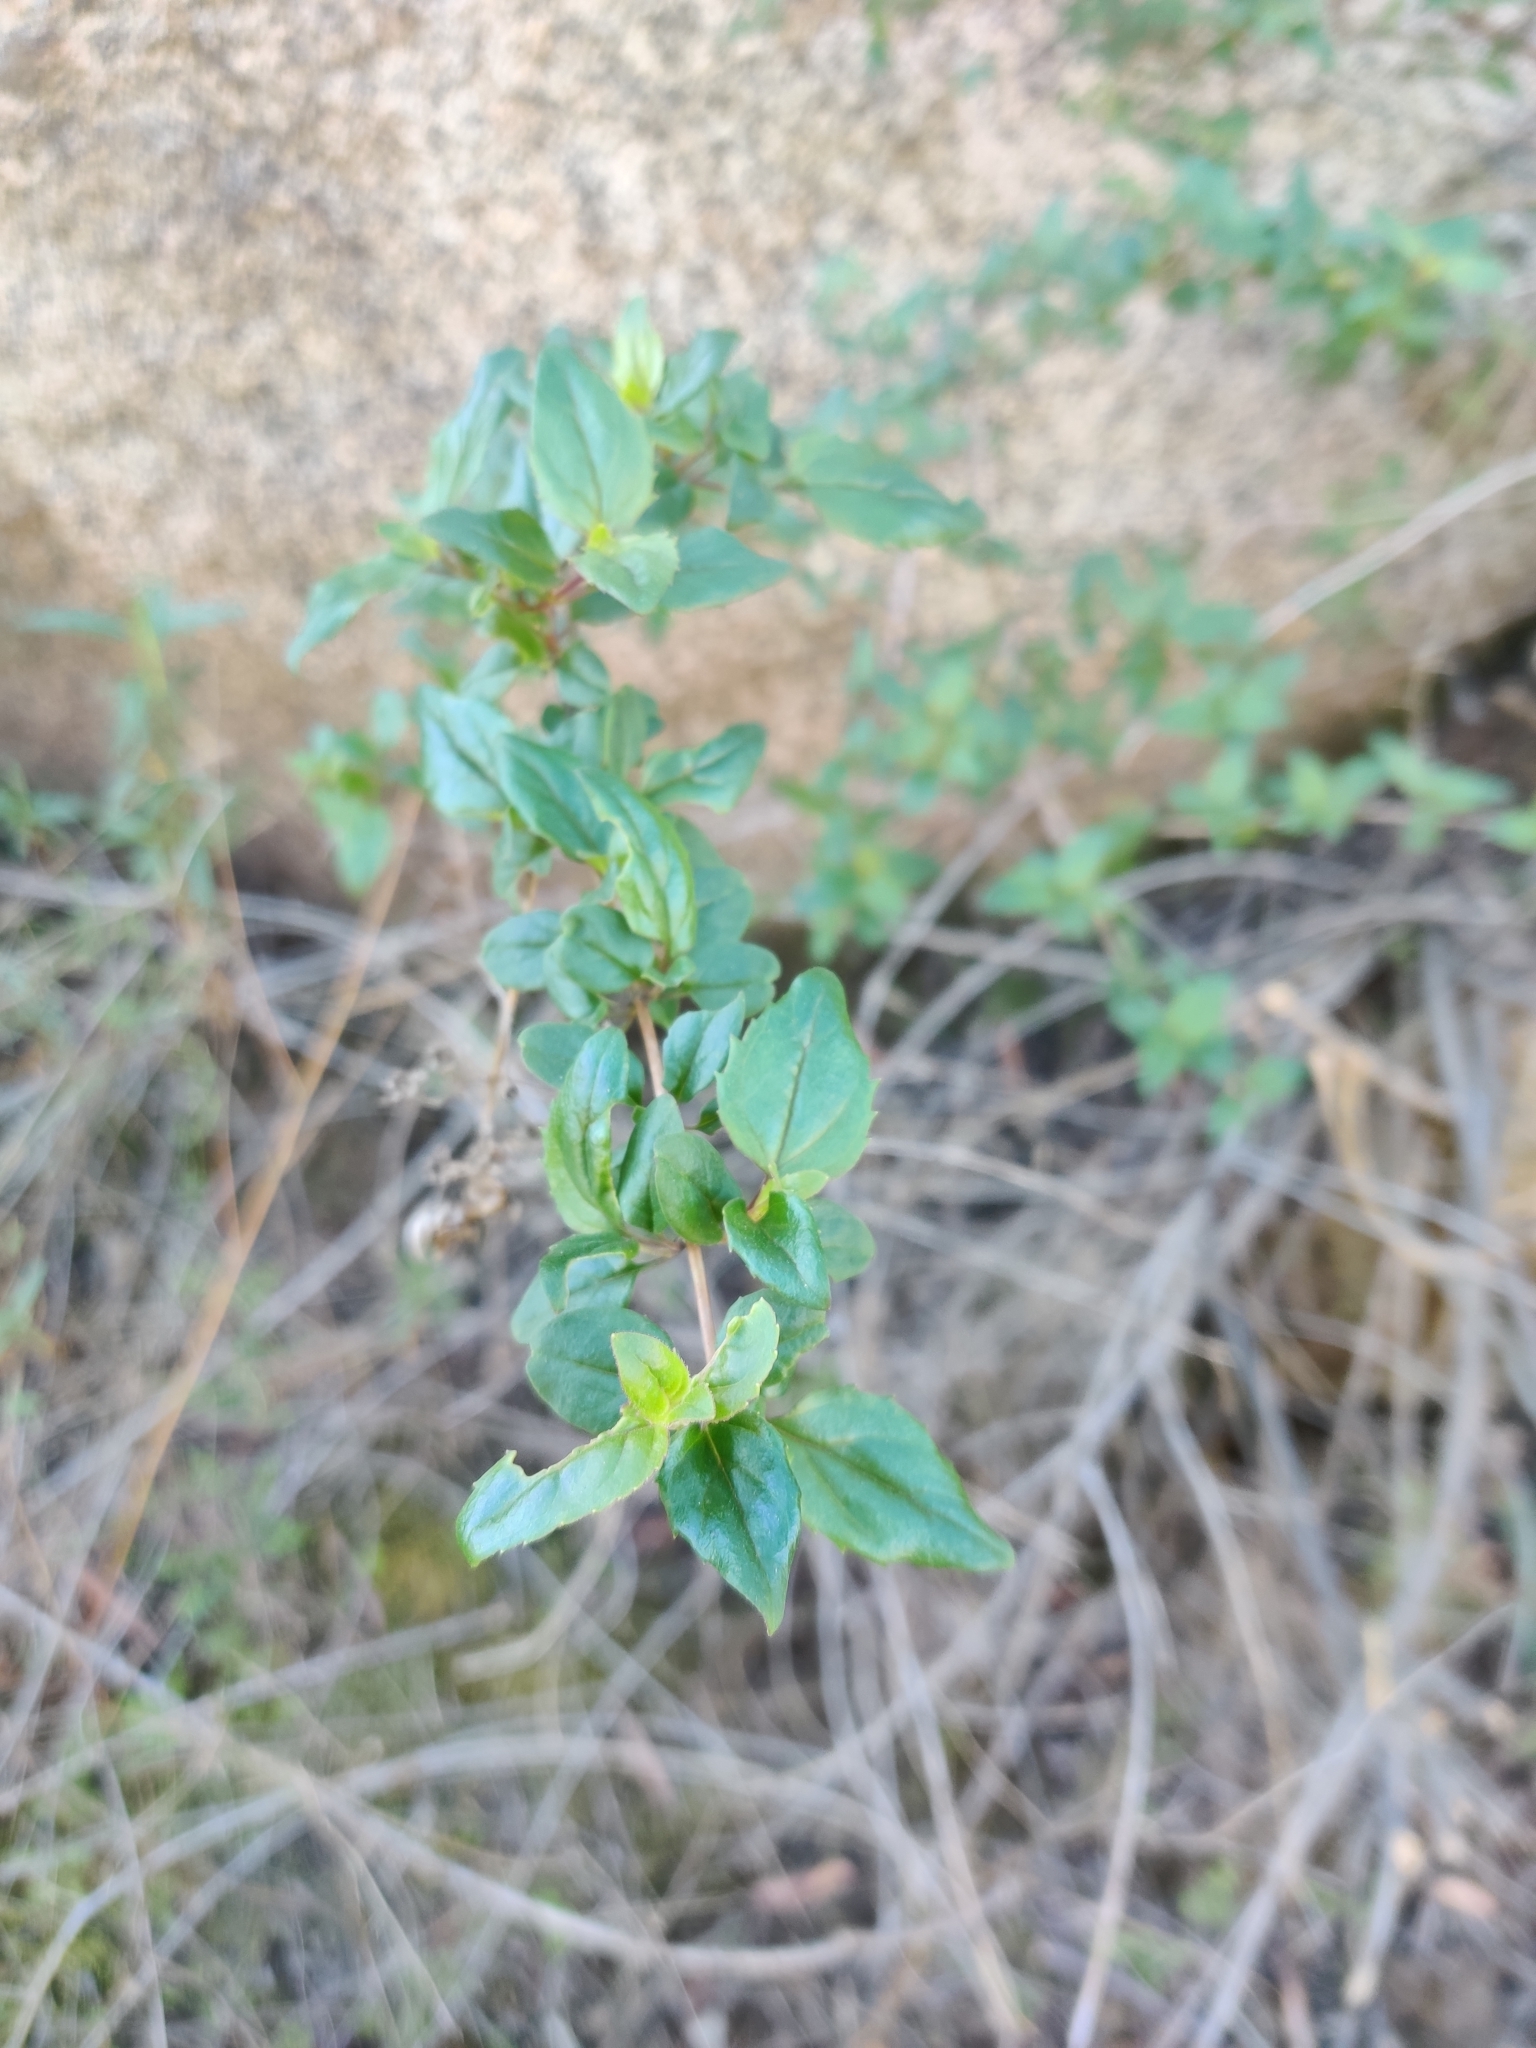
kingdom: Plantae
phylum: Tracheophyta
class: Magnoliopsida
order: Lamiales
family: Plantaginaceae
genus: Keckiella
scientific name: Keckiella cordifolia
